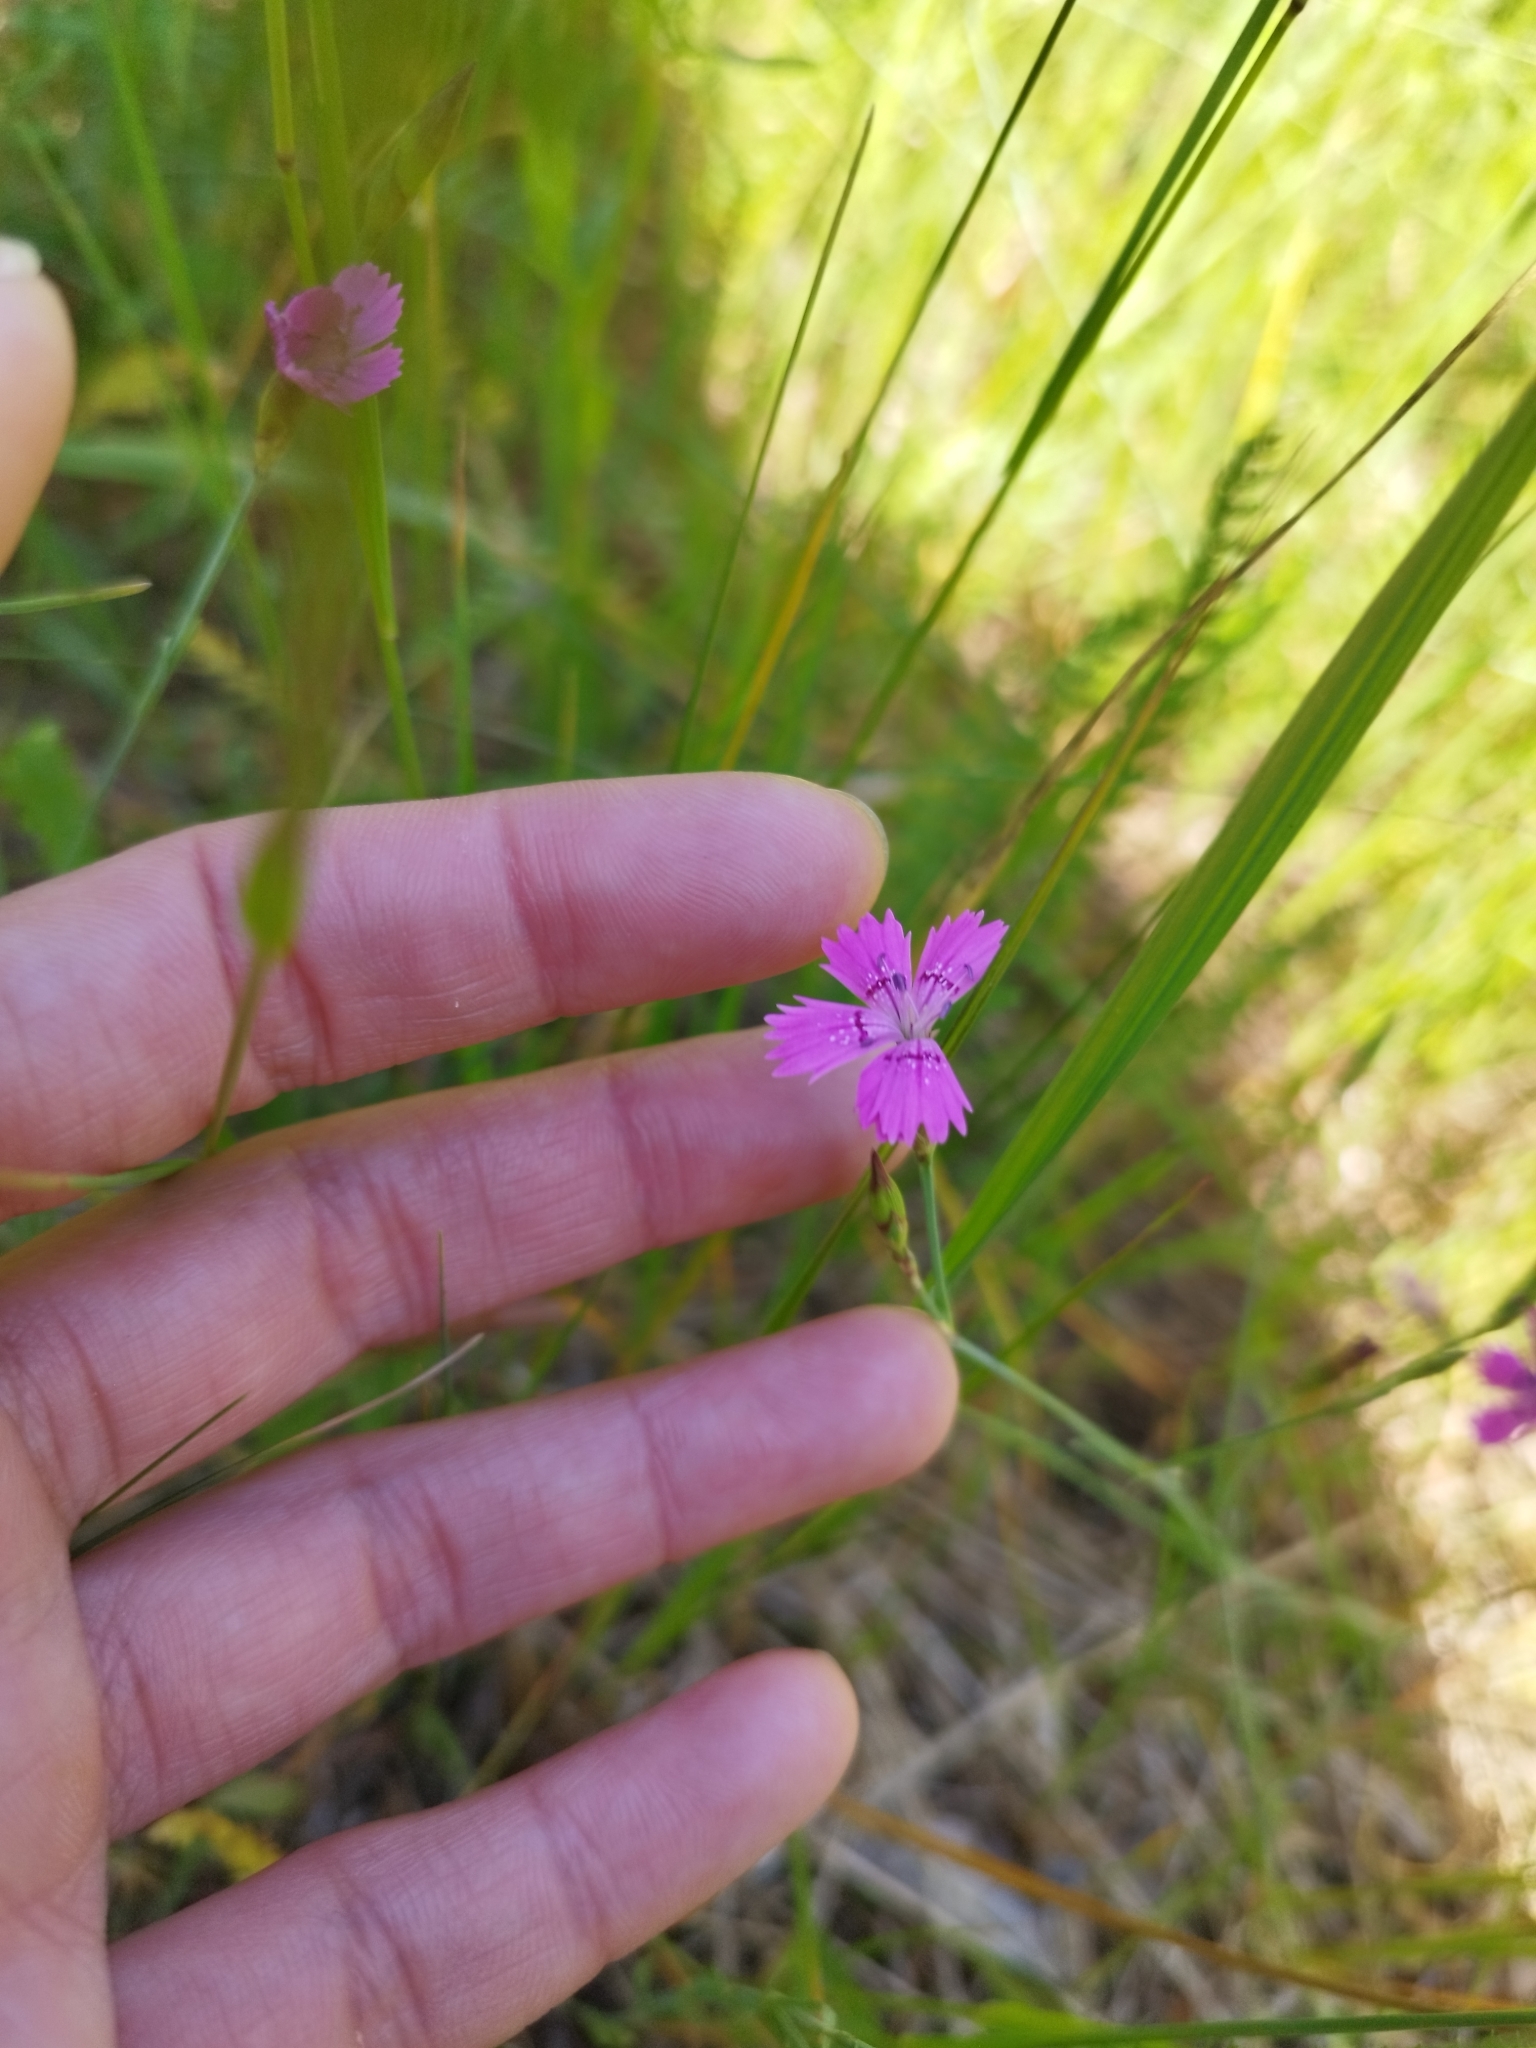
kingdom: Plantae
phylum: Tracheophyta
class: Magnoliopsida
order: Caryophyllales
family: Caryophyllaceae
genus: Dianthus
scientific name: Dianthus deltoides
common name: Maiden pink
